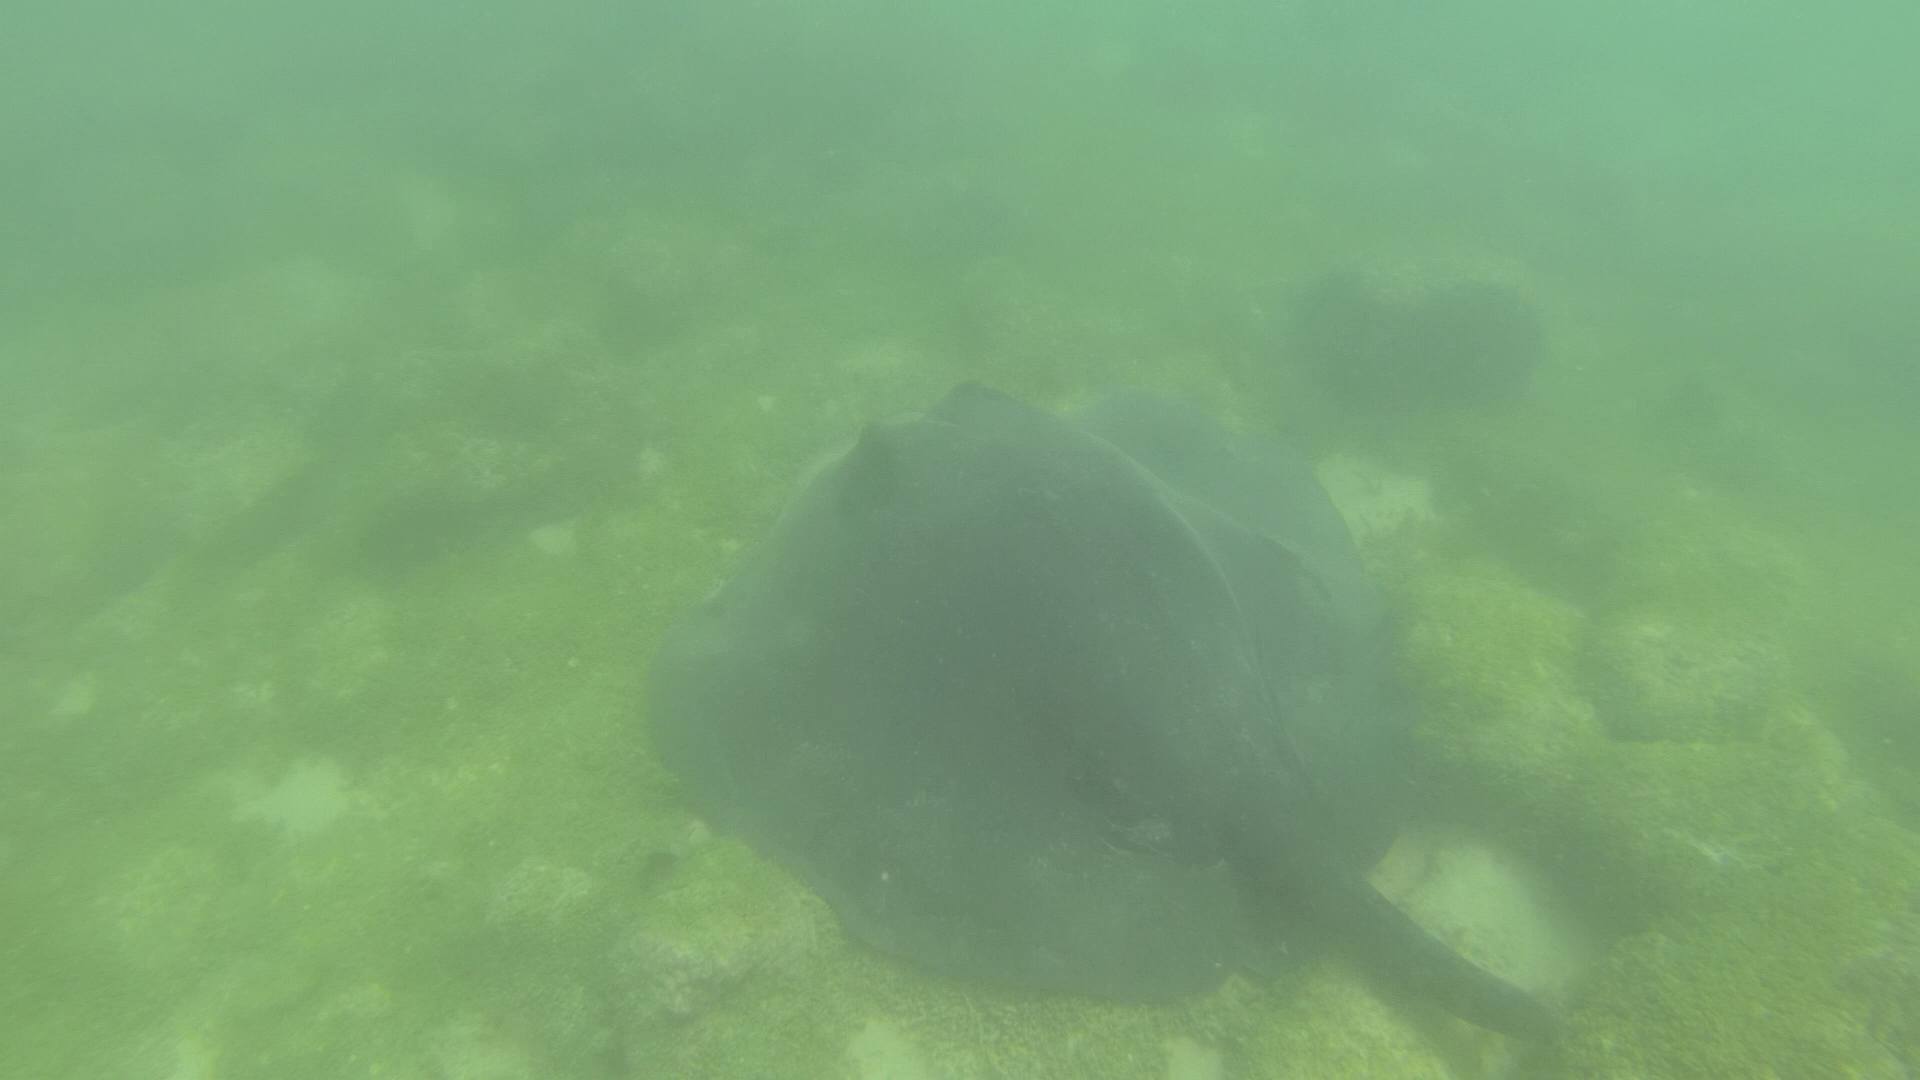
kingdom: Animalia
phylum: Chordata
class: Elasmobranchii
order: Myliobatiformes
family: Dasyatidae
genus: Taeniurops
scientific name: Taeniurops meyeni
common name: Black-blotched stingray
